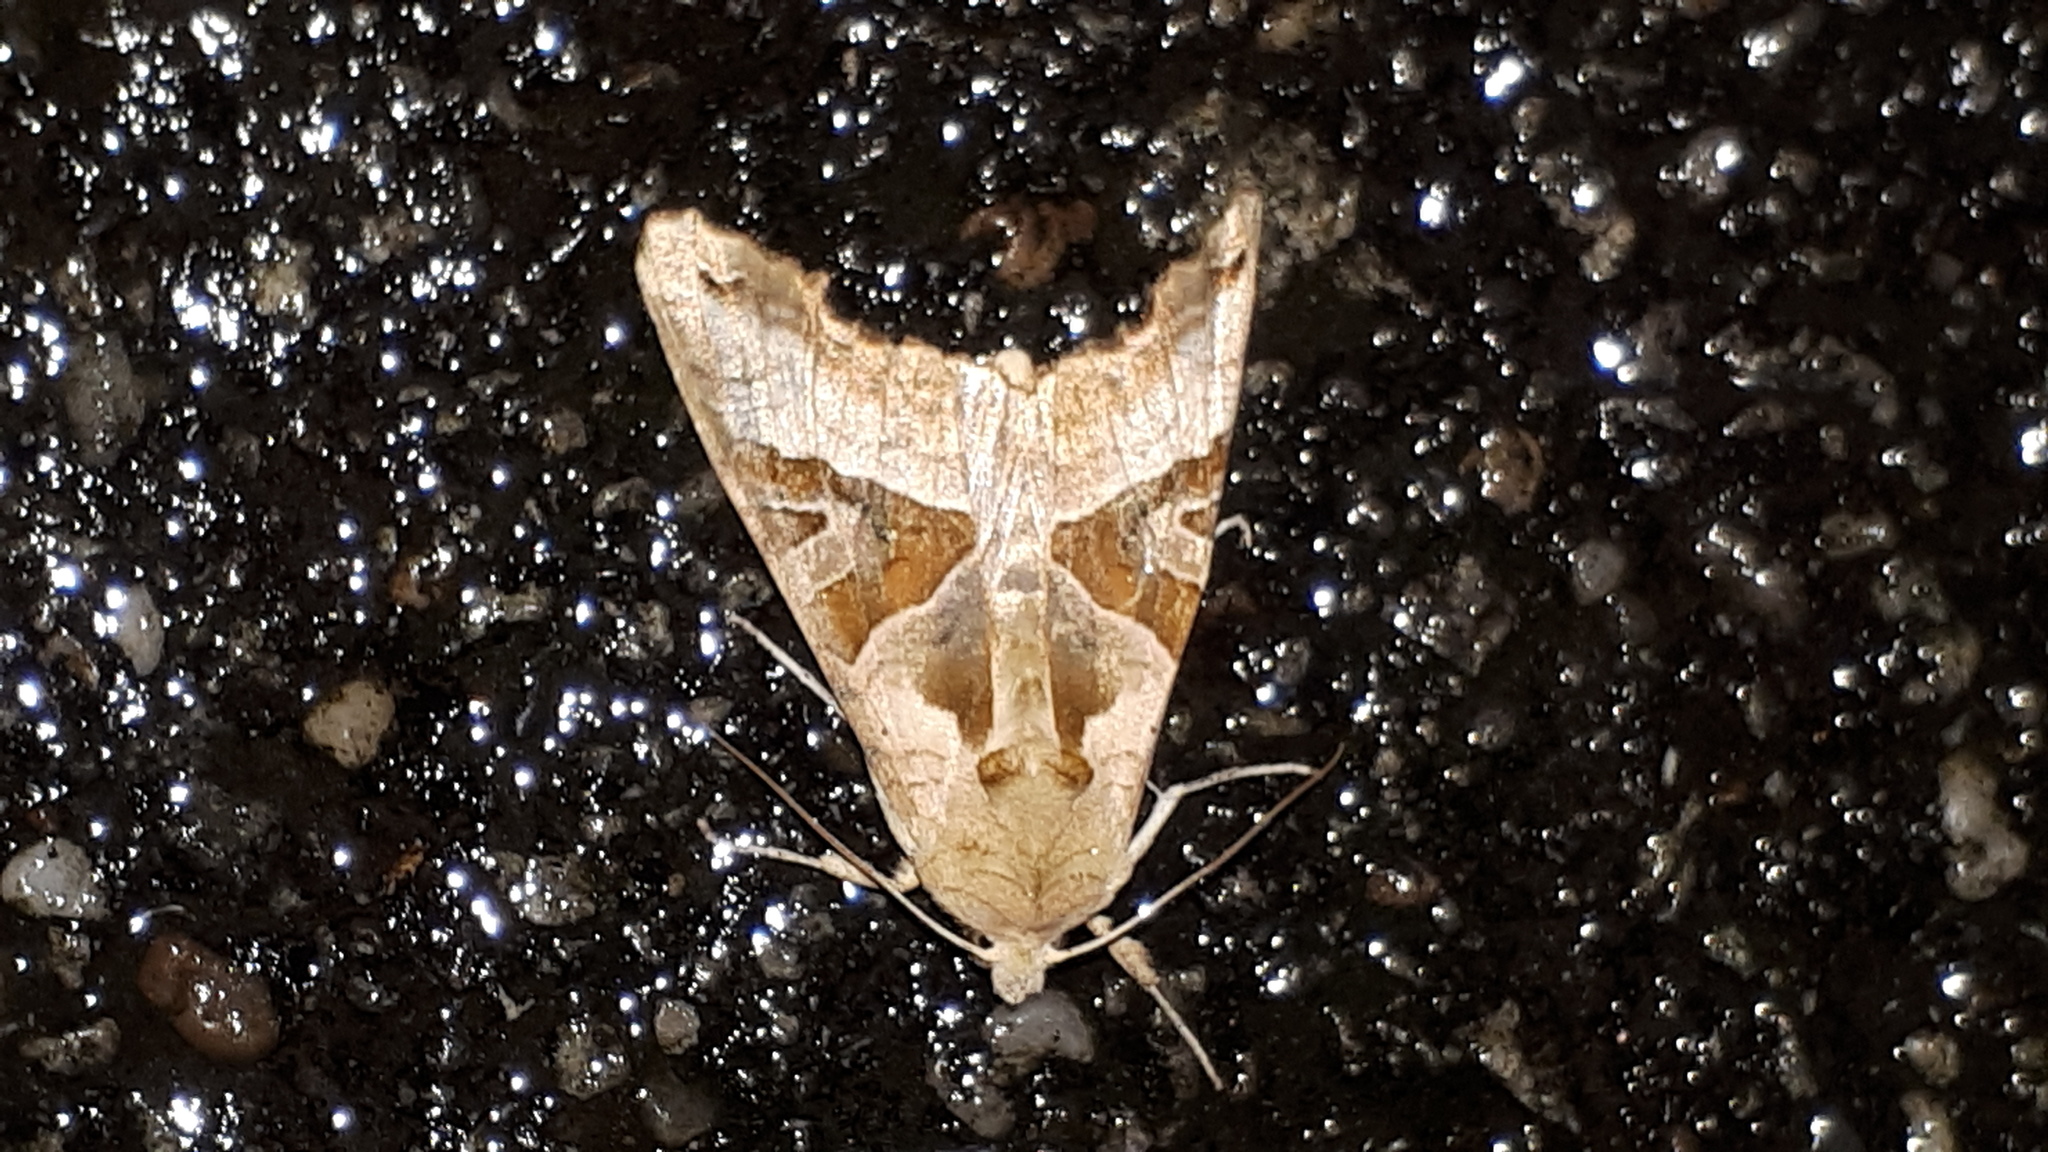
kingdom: Animalia
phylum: Arthropoda
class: Insecta
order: Lepidoptera
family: Noctuidae
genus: Phlogophora
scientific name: Phlogophora meticulosa
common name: Angle shades
